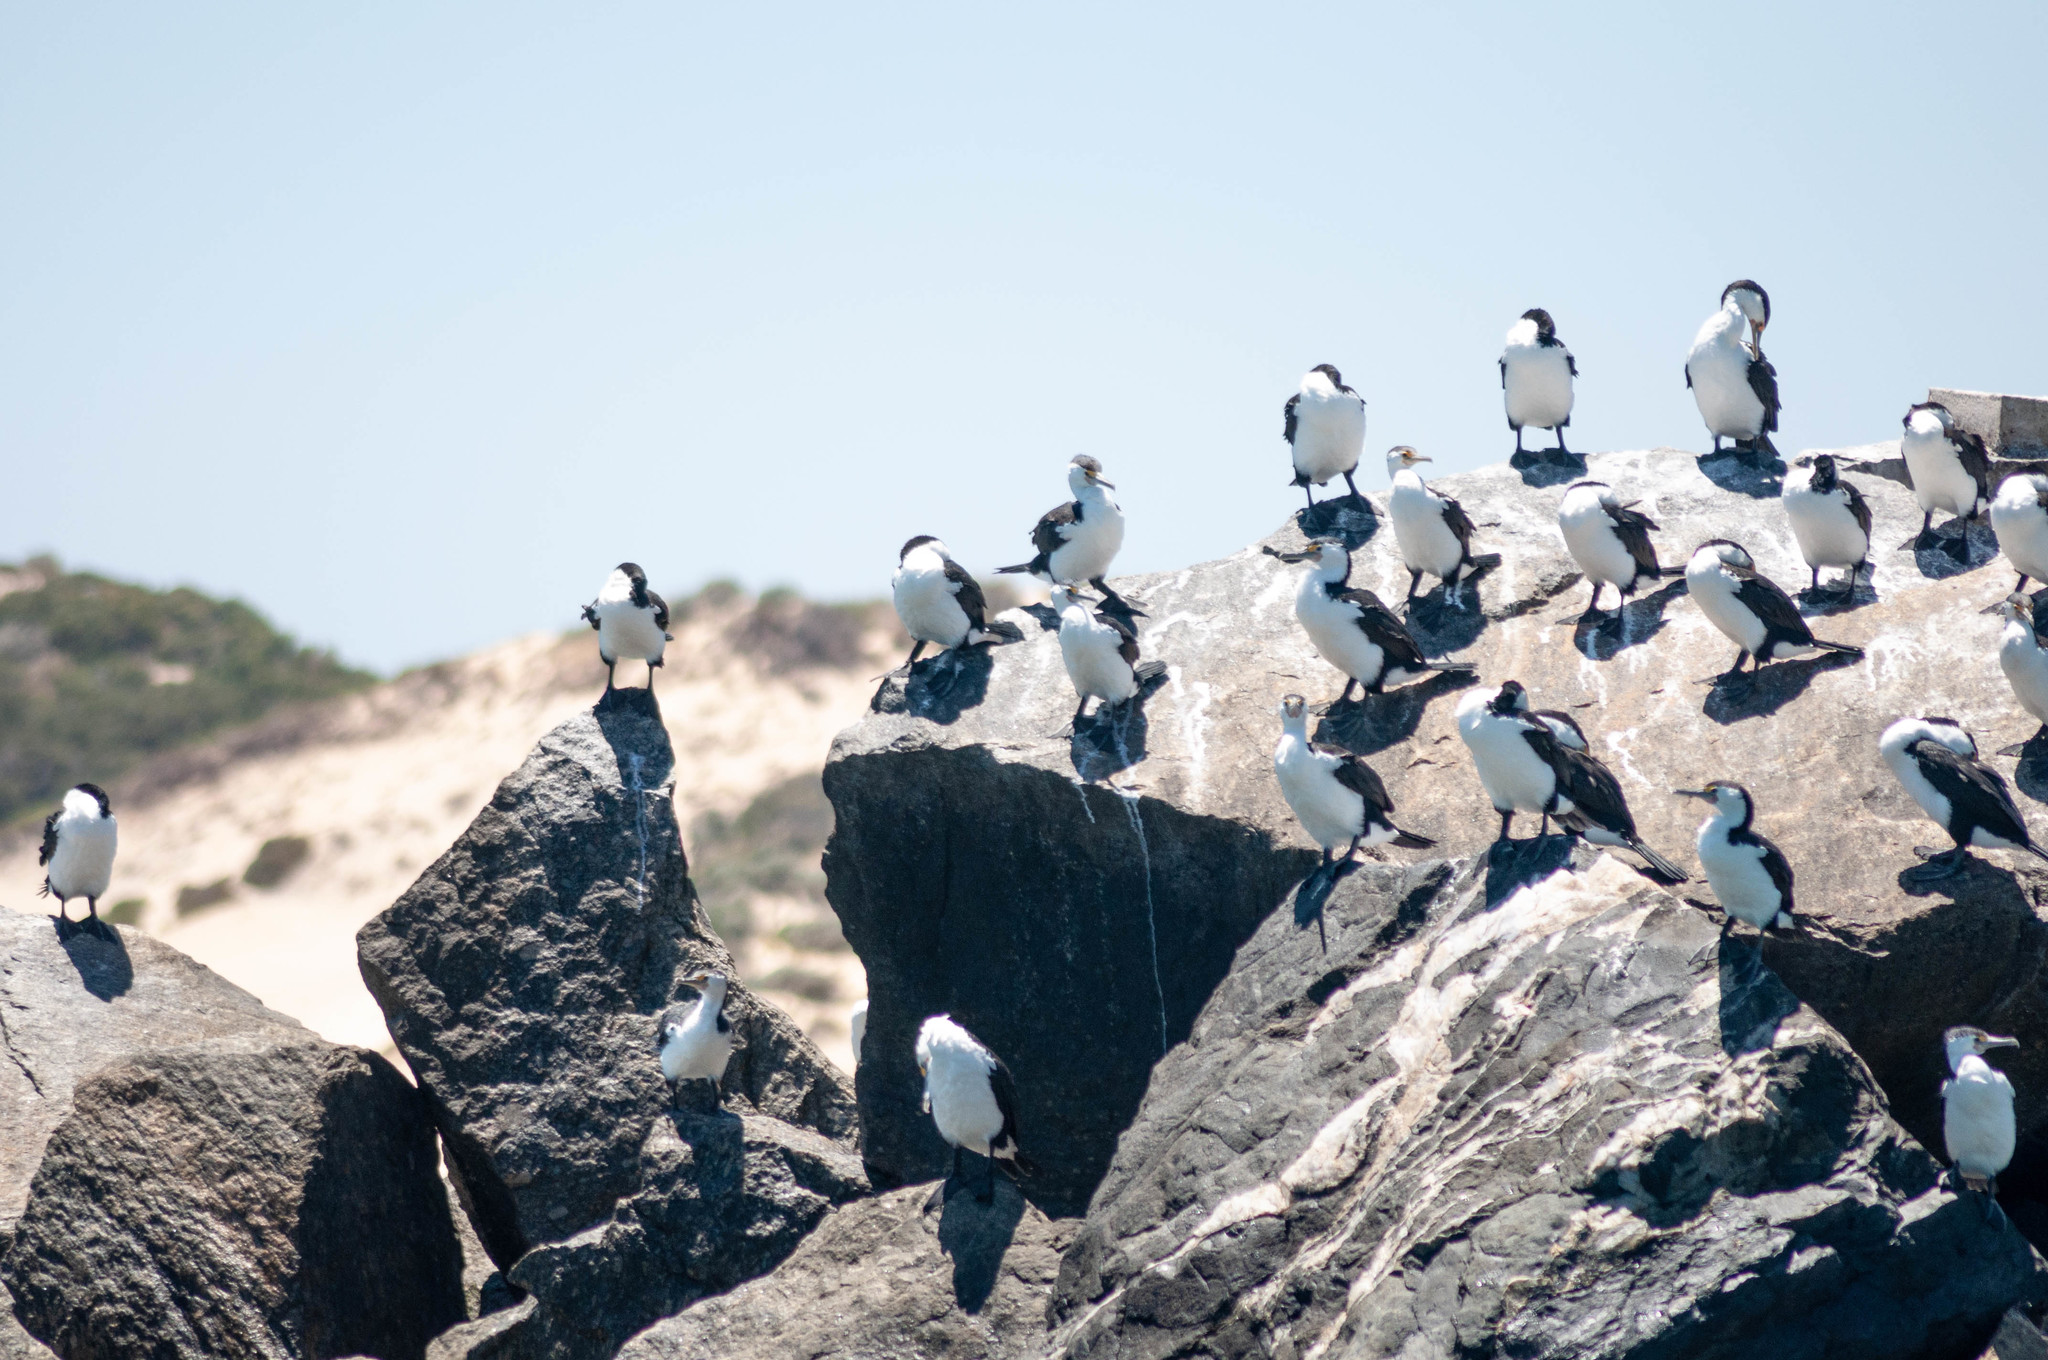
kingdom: Animalia
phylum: Chordata
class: Aves
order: Suliformes
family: Phalacrocoracidae
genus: Phalacrocorax
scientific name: Phalacrocorax varius
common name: Pied cormorant
